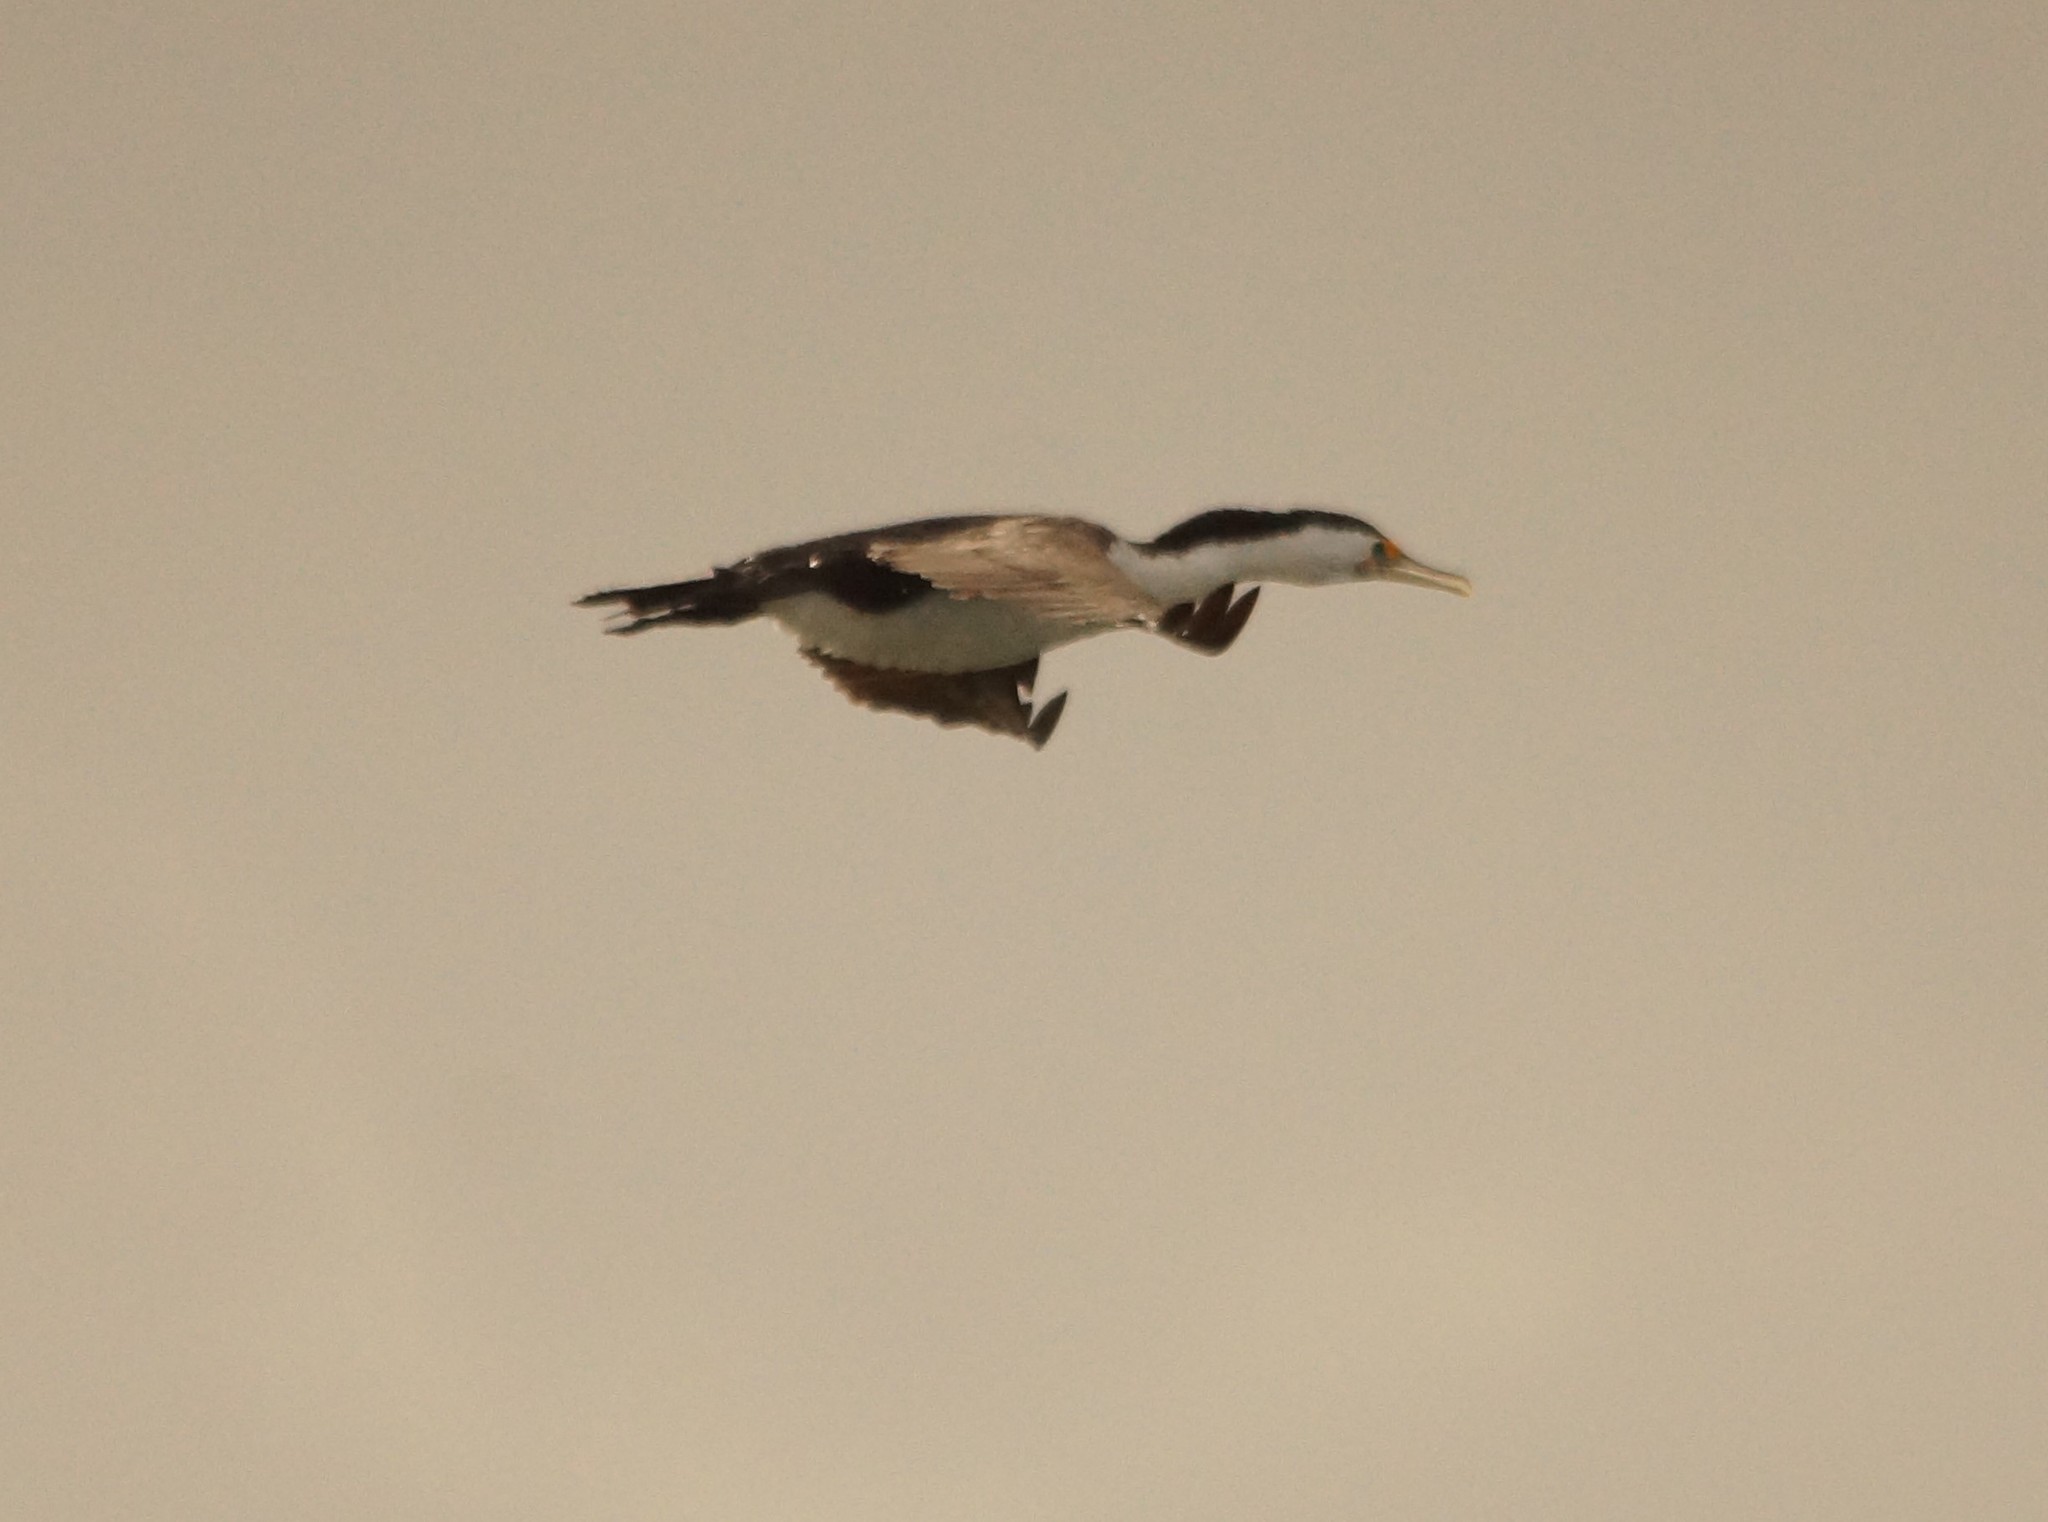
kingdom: Animalia
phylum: Chordata
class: Aves
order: Suliformes
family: Phalacrocoracidae
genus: Phalacrocorax
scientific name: Phalacrocorax varius
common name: Pied cormorant
